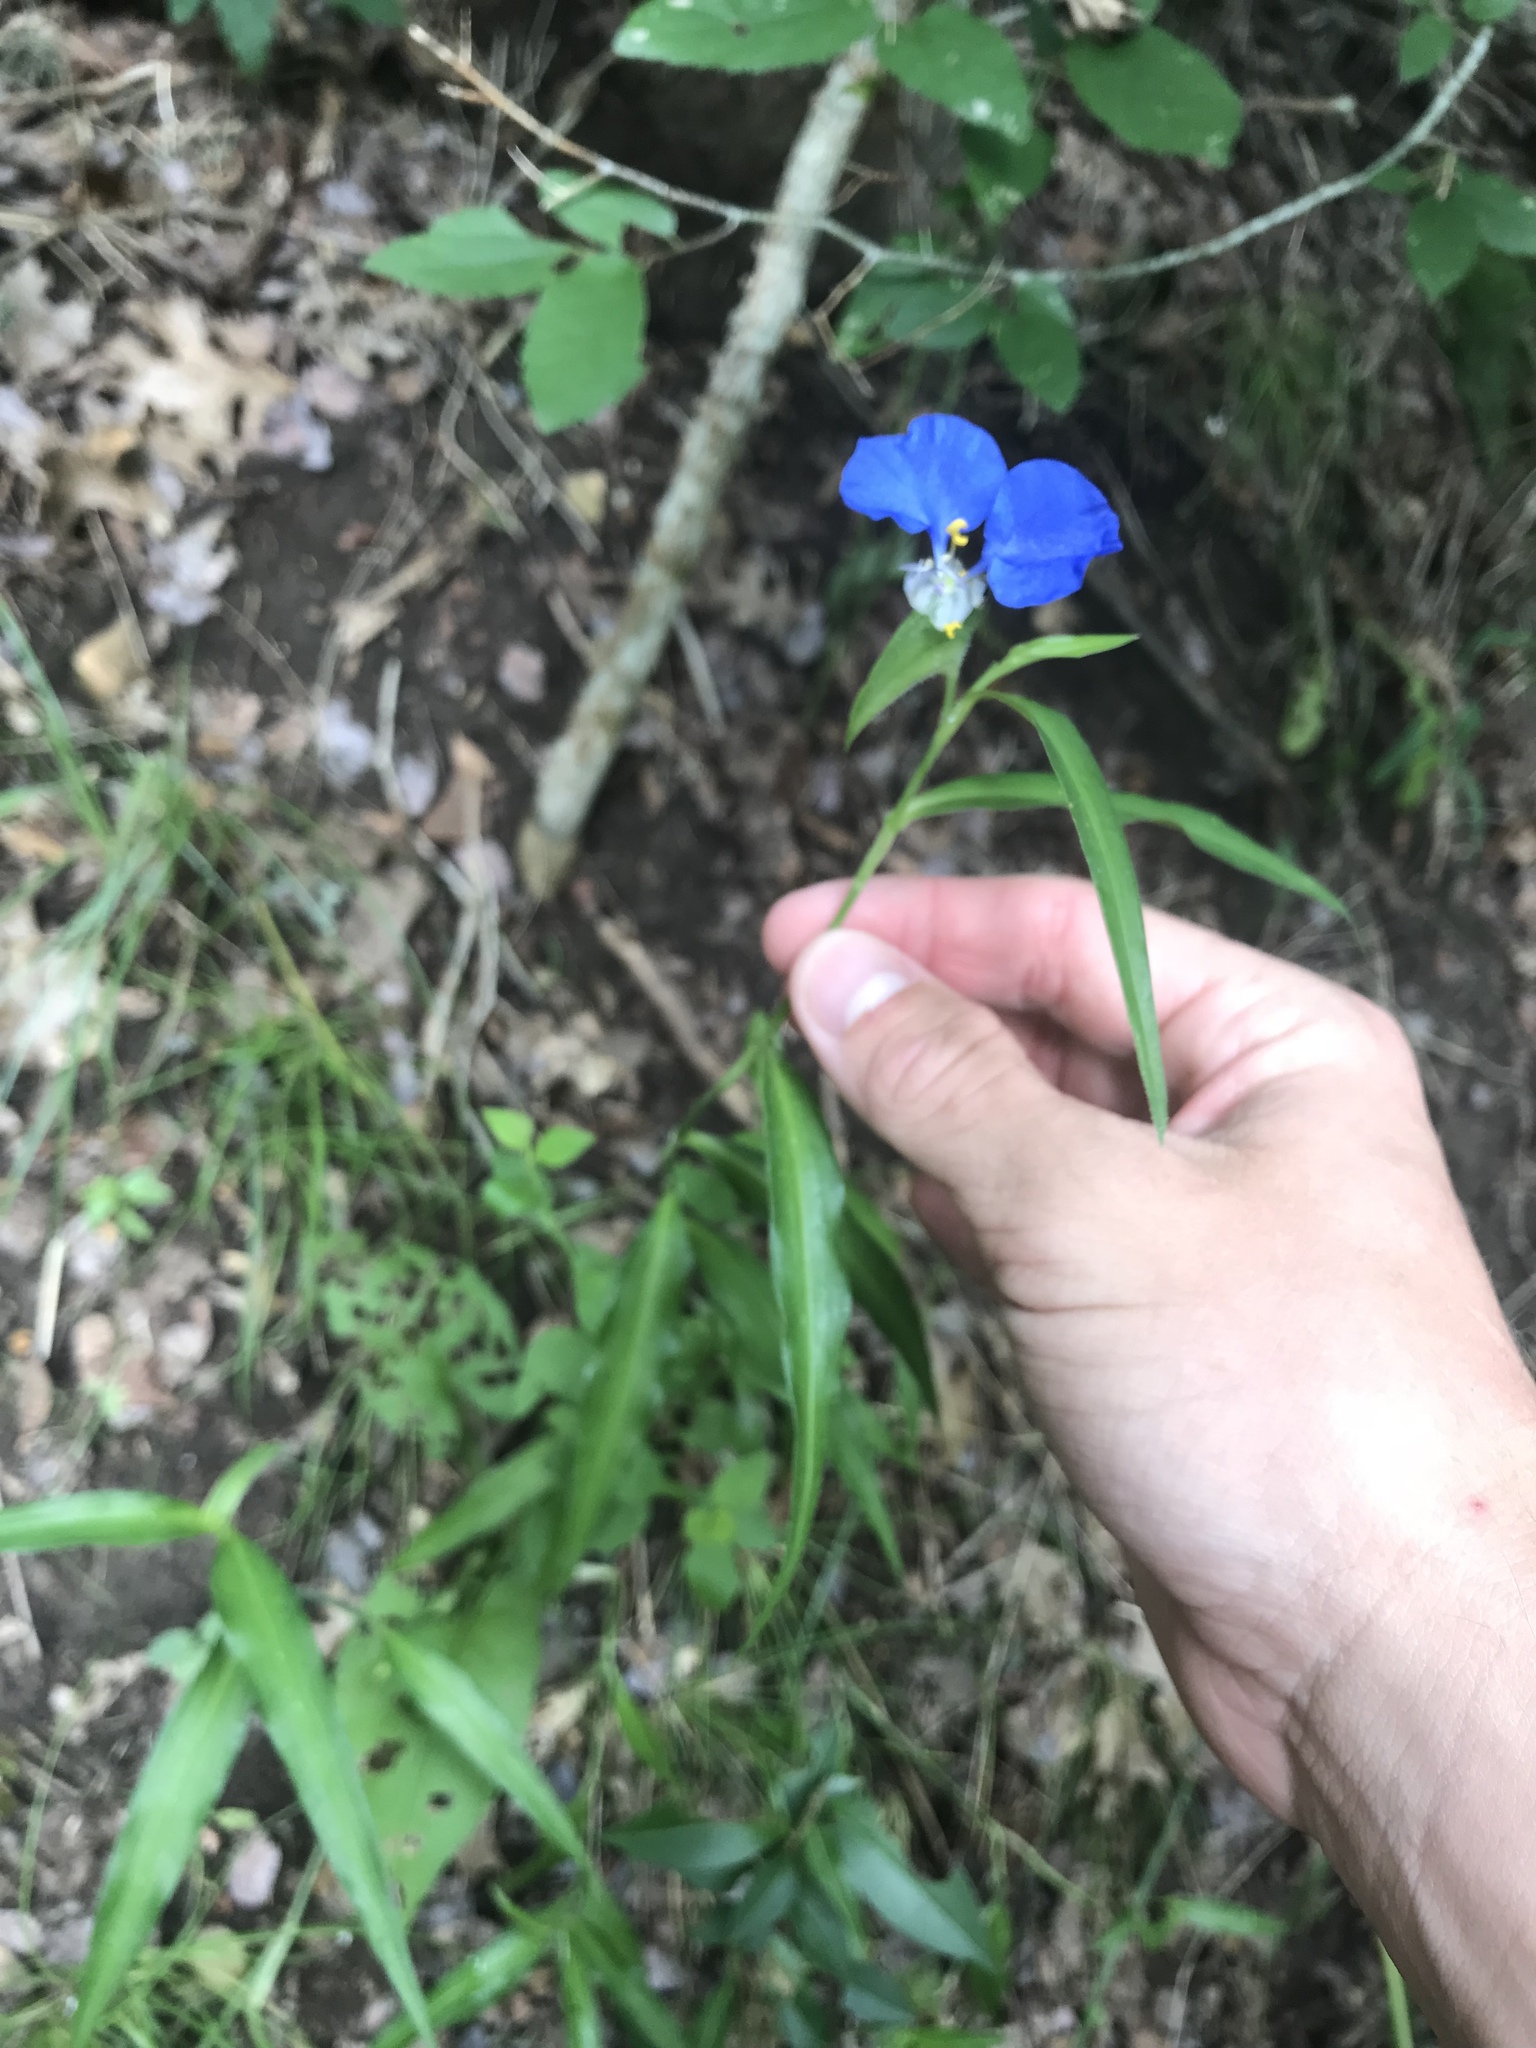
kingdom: Plantae
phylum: Tracheophyta
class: Liliopsida
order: Commelinales
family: Commelinaceae
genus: Commelina
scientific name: Commelina erecta
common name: Blousel blommetjie
